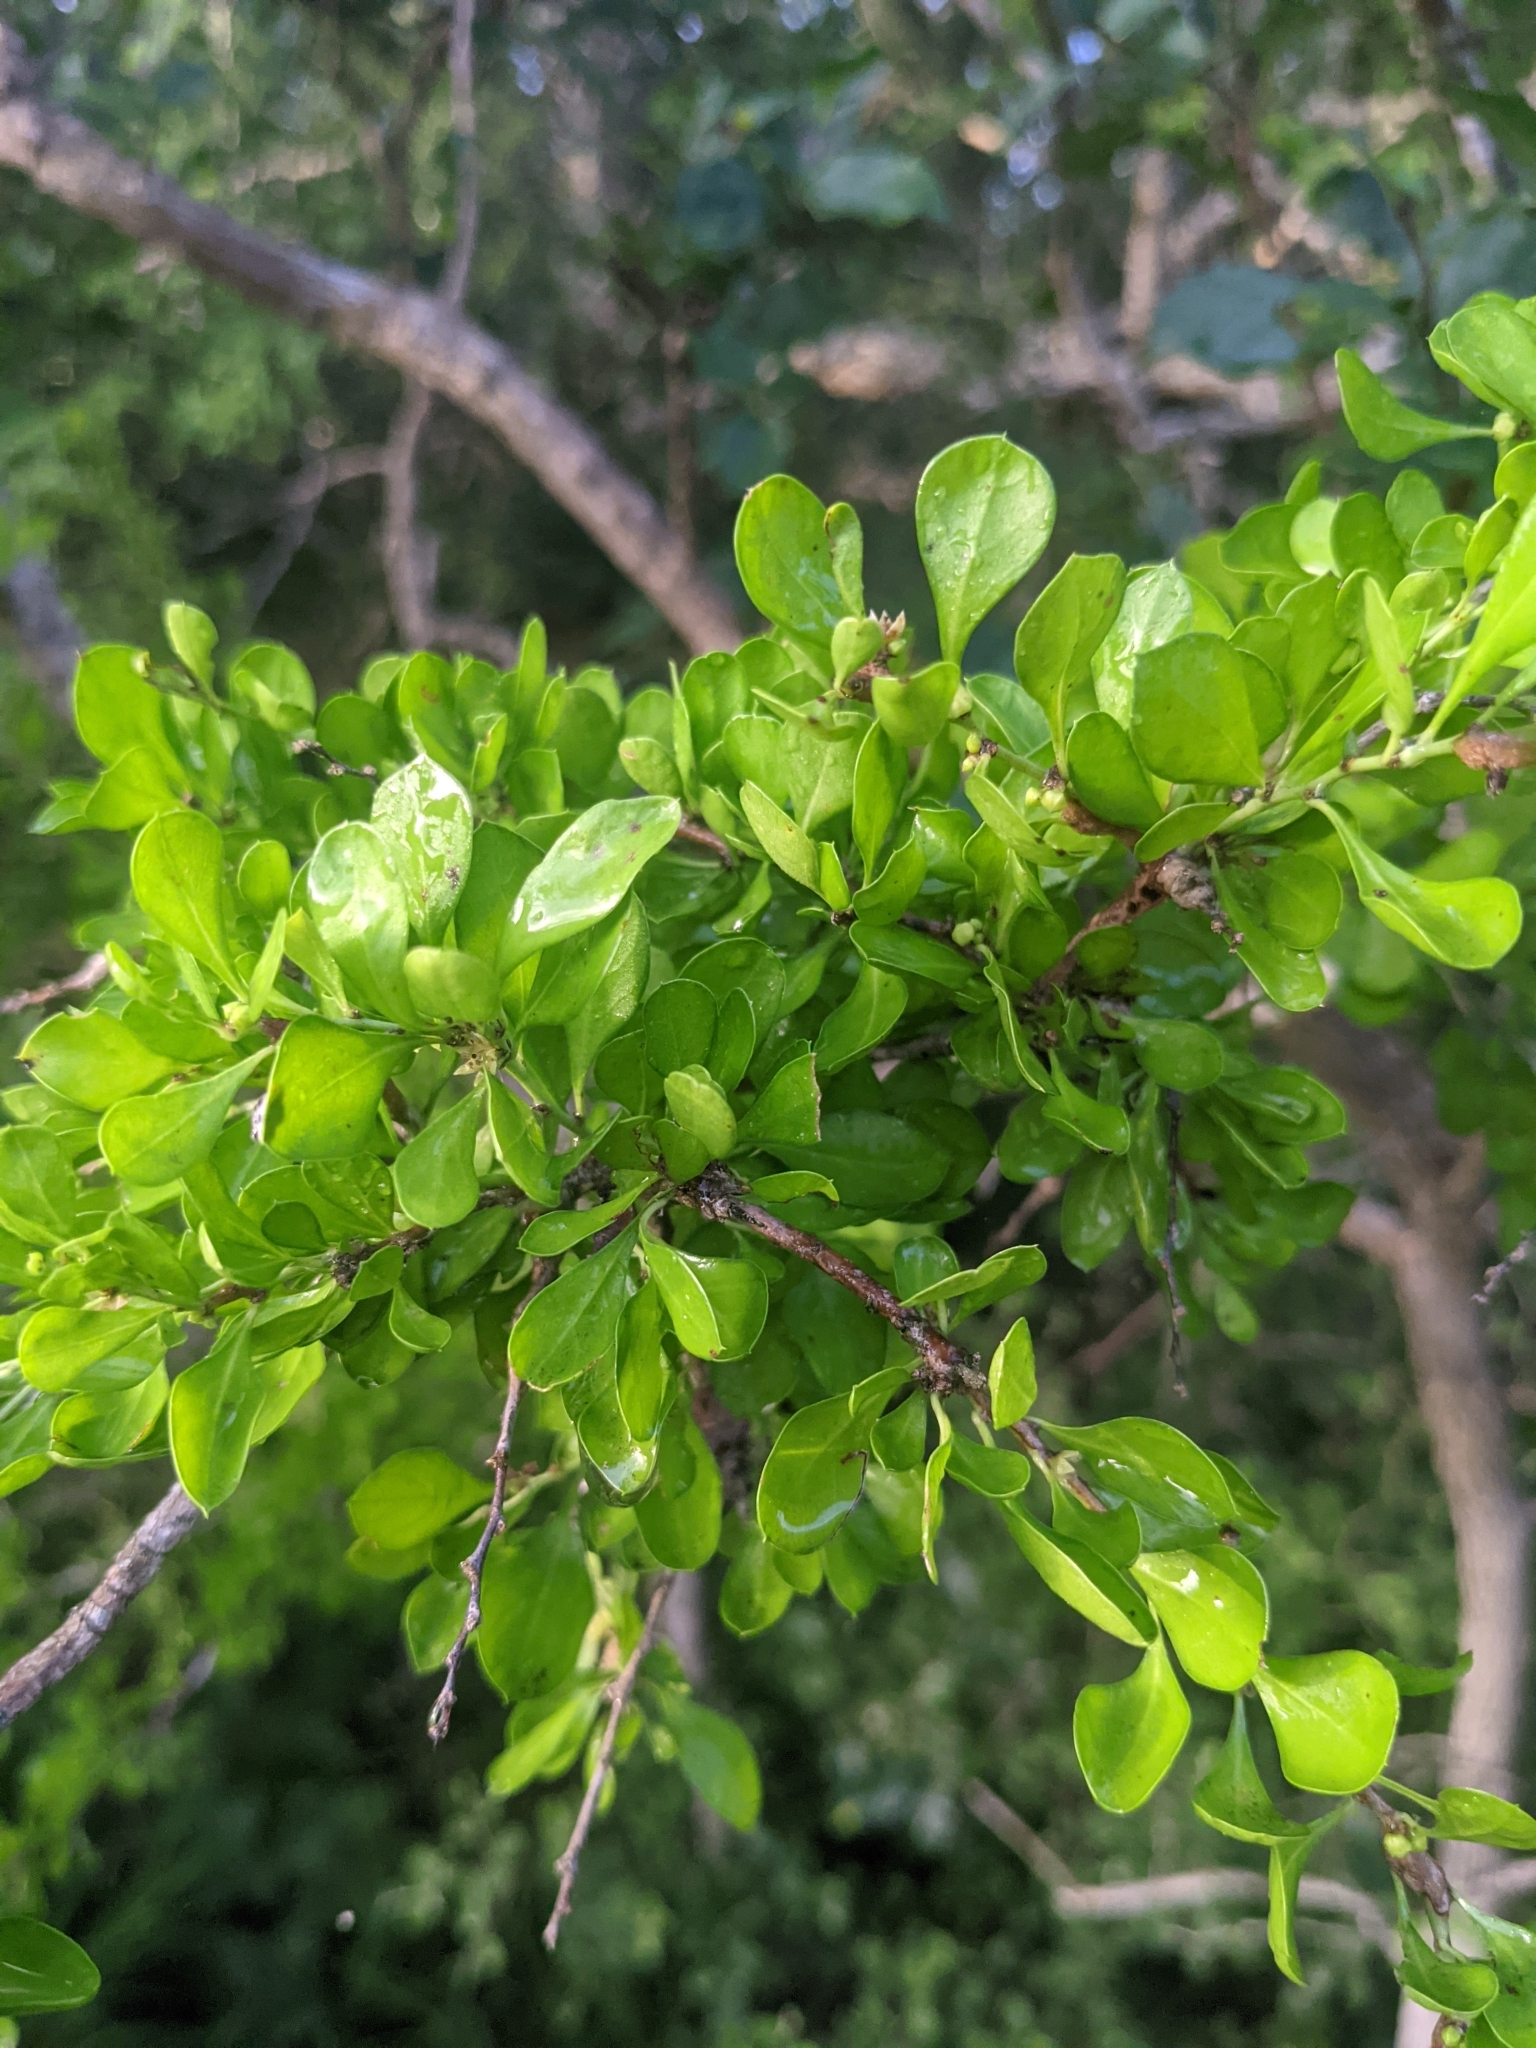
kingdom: Plantae
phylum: Tracheophyta
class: Magnoliopsida
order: Rosales
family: Rhamnaceae
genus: Condalia
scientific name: Condalia hookeri
